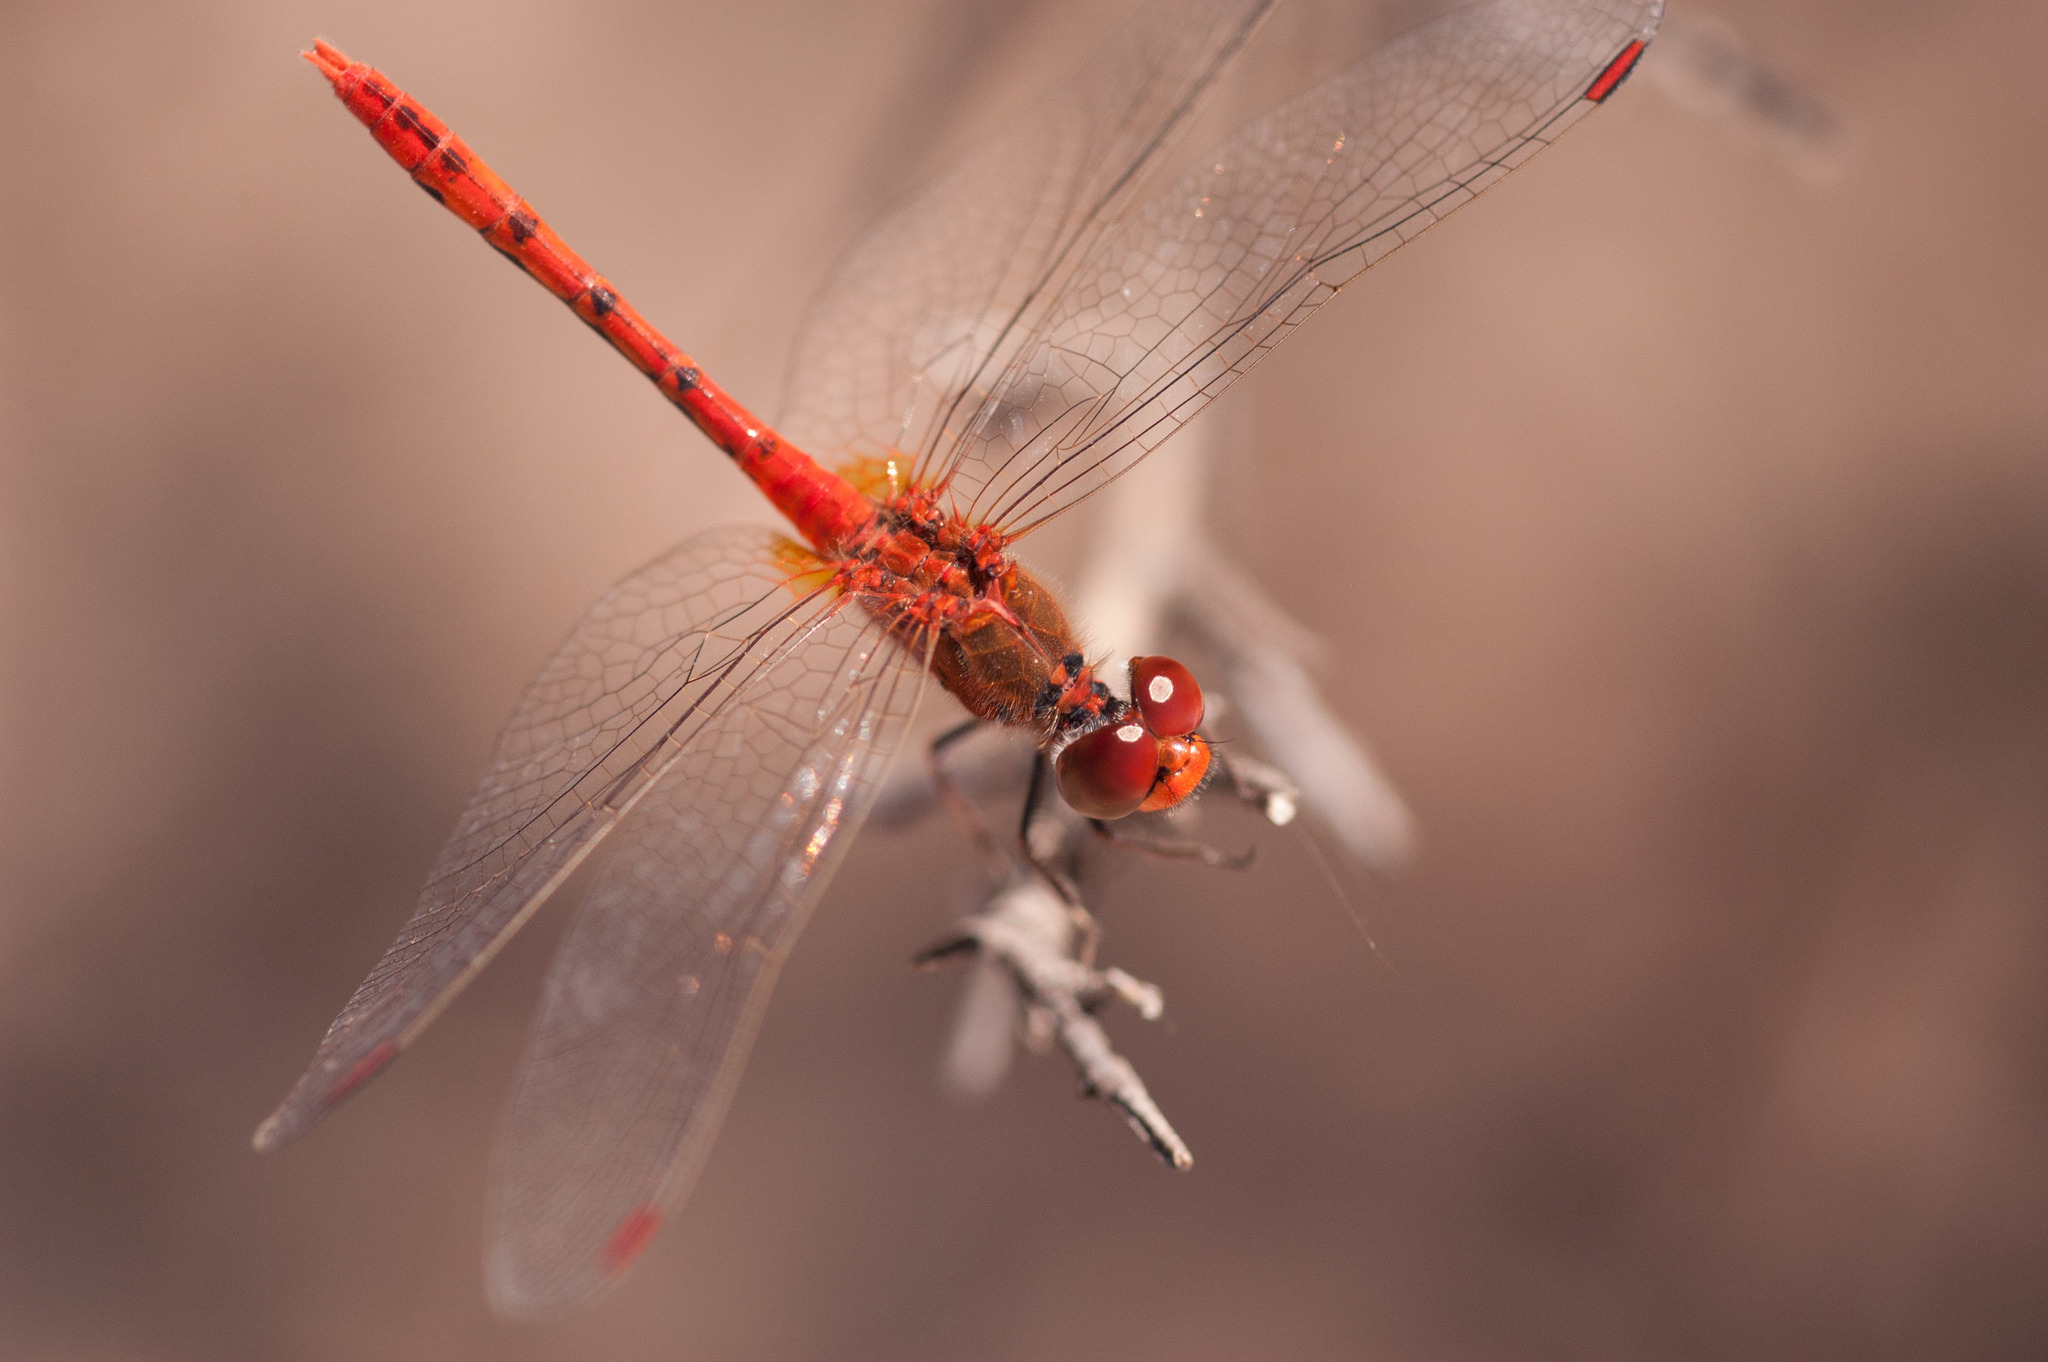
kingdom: Animalia
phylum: Arthropoda
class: Insecta
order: Odonata
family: Libellulidae
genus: Diplacodes
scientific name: Diplacodes bipunctata
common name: Red percher dragonfly
